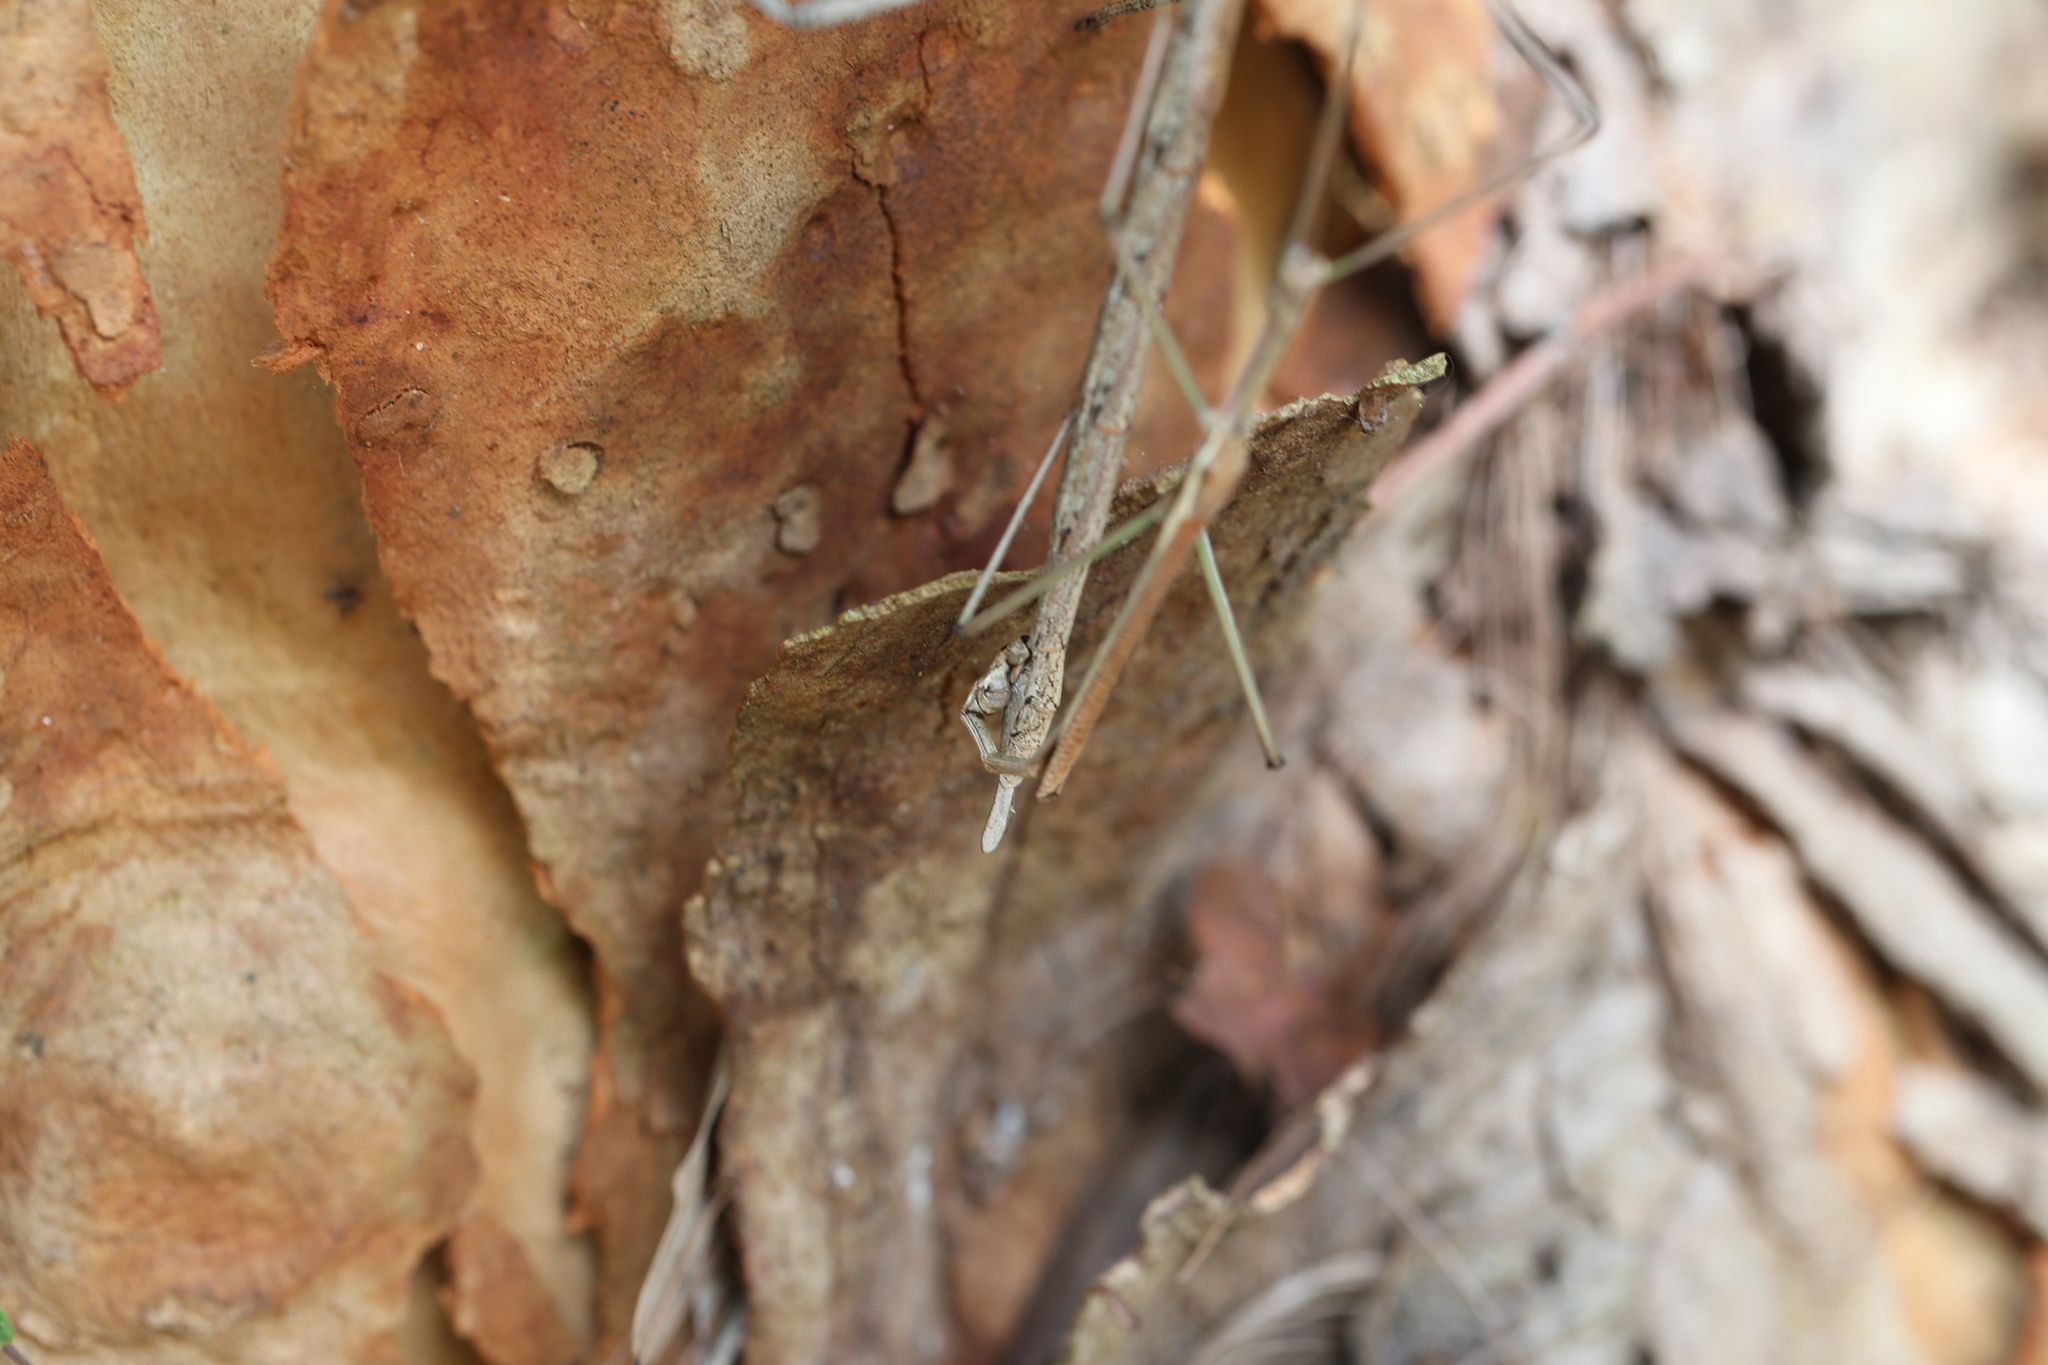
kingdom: Animalia
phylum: Arthropoda
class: Insecta
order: Phasmida
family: Phasmatidae
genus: Anchiale
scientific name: Anchiale austrotessulata
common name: Tessellated stick-insect
